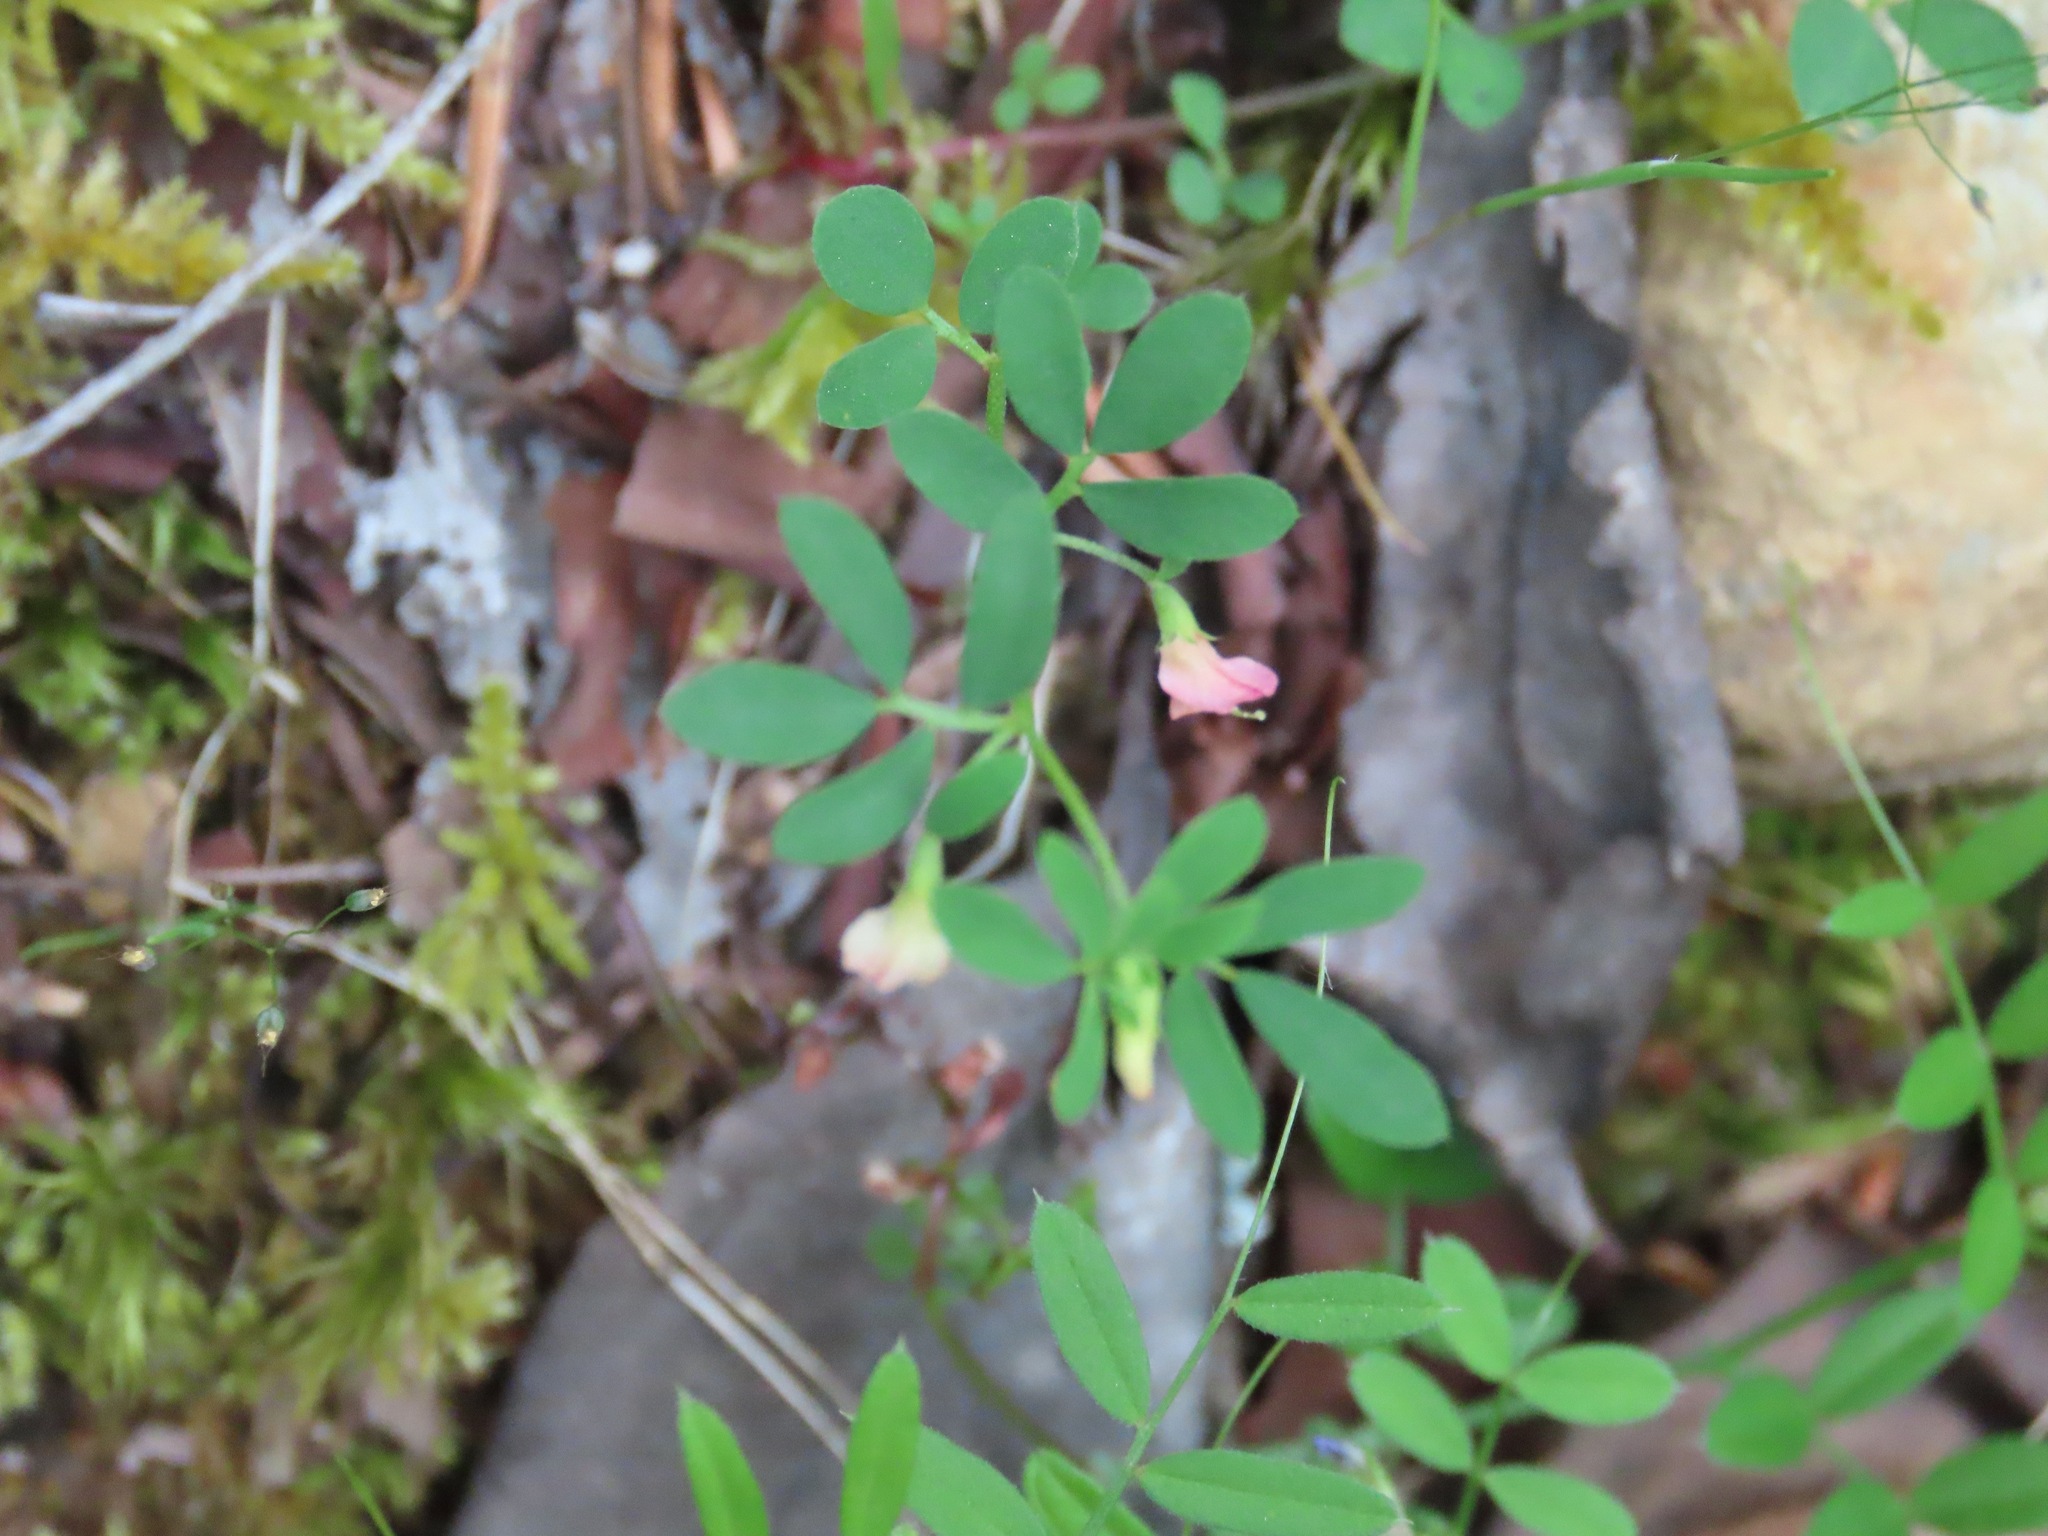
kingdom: Plantae
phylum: Tracheophyta
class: Magnoliopsida
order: Fabales
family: Fabaceae
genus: Acmispon
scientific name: Acmispon parviflorus
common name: Desert deer-vetch
